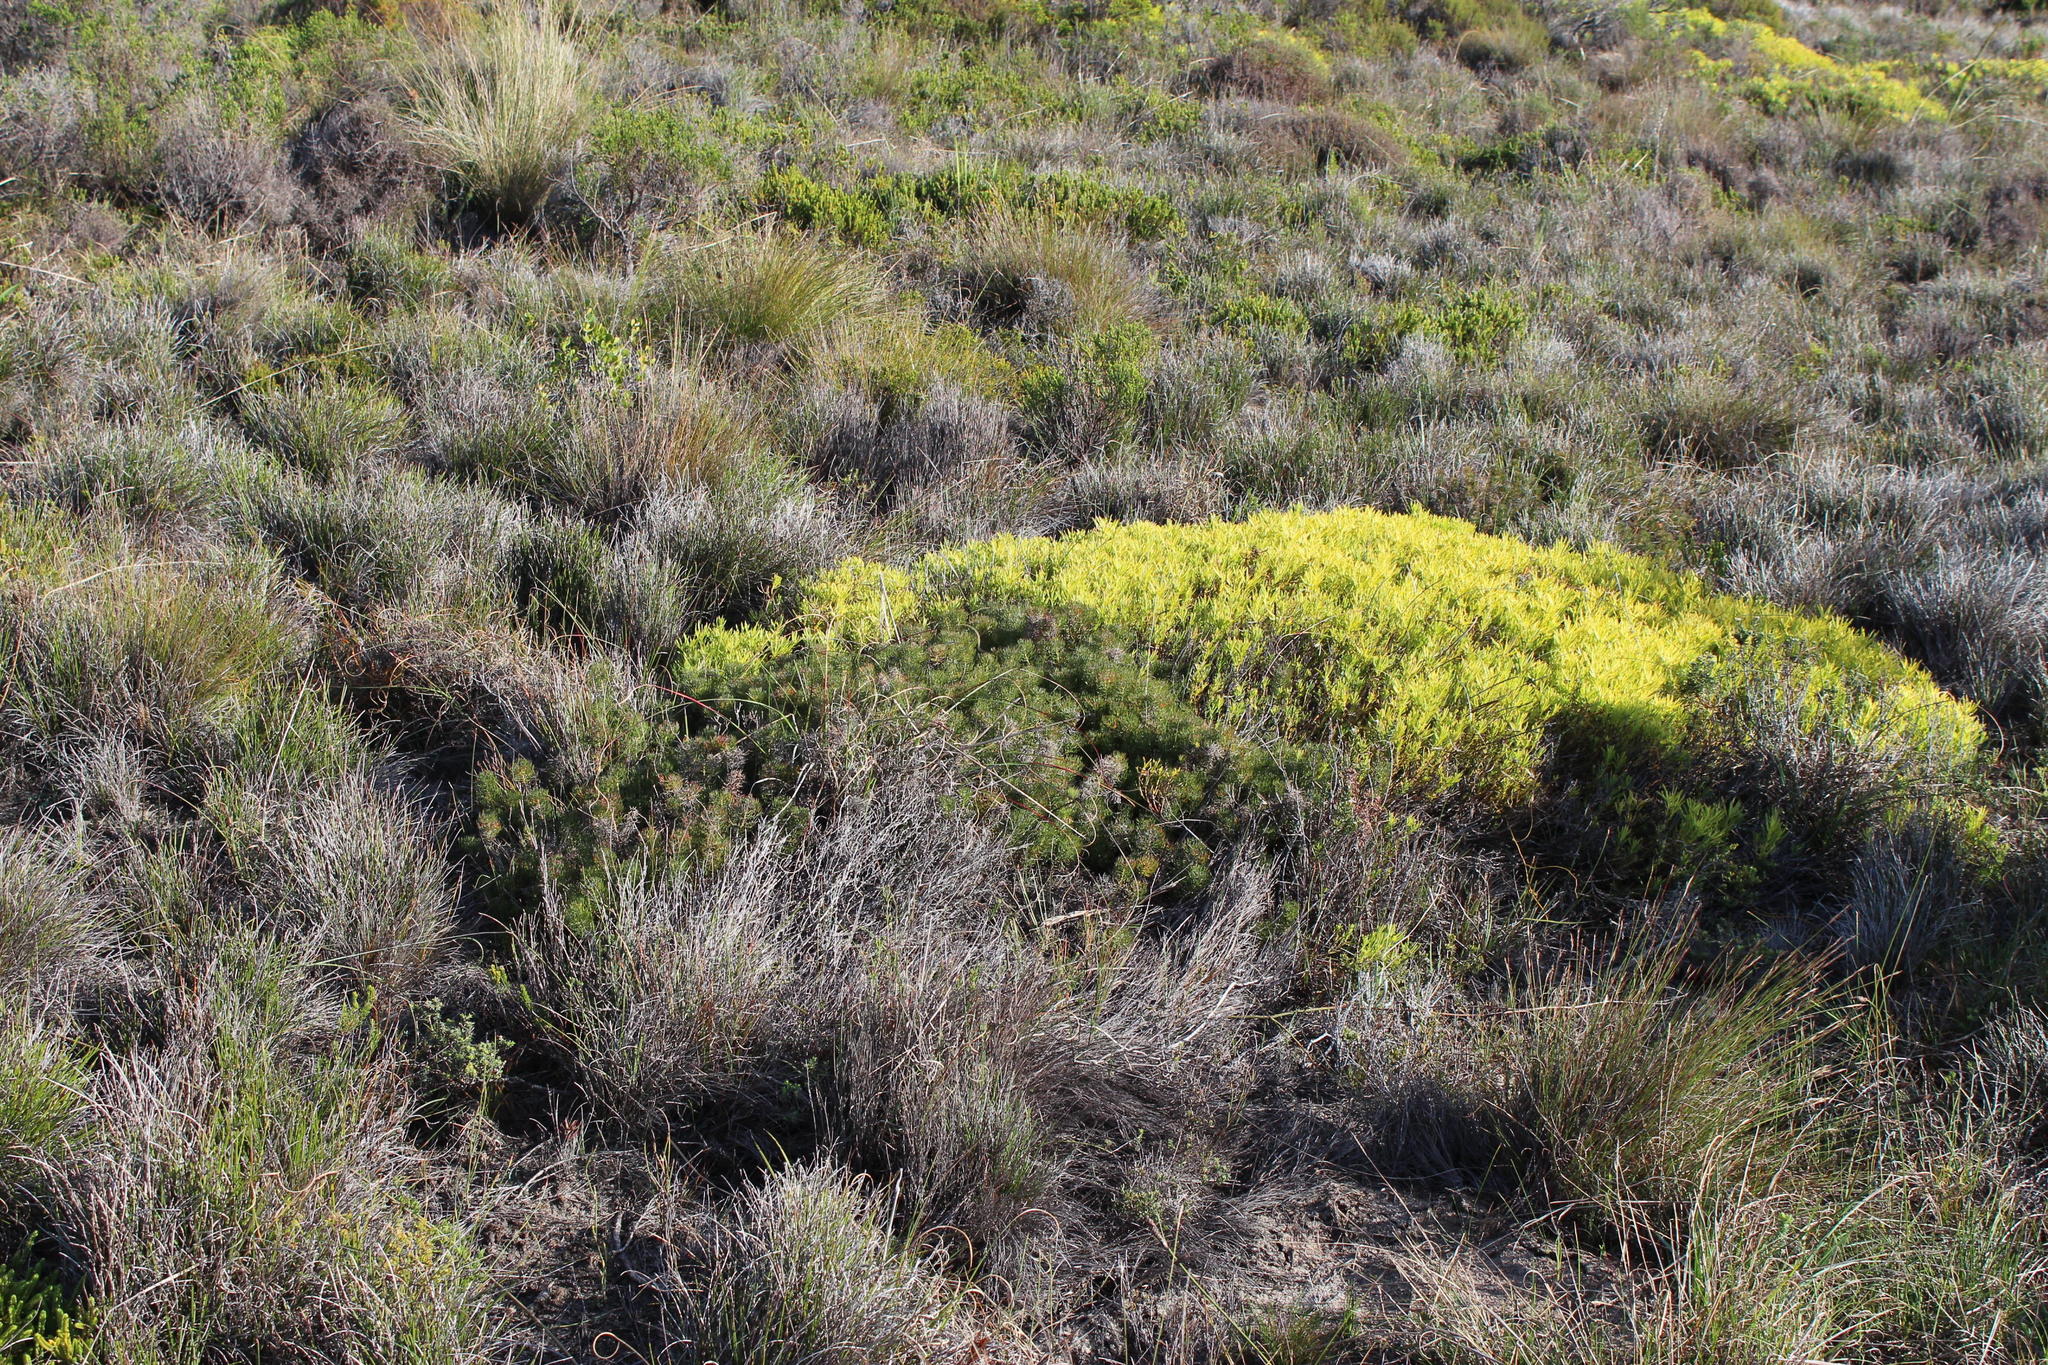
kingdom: Plantae
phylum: Tracheophyta
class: Magnoliopsida
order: Proteales
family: Proteaceae
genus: Leucadendron
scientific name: Leucadendron salignum
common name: Common sunshine conebush
